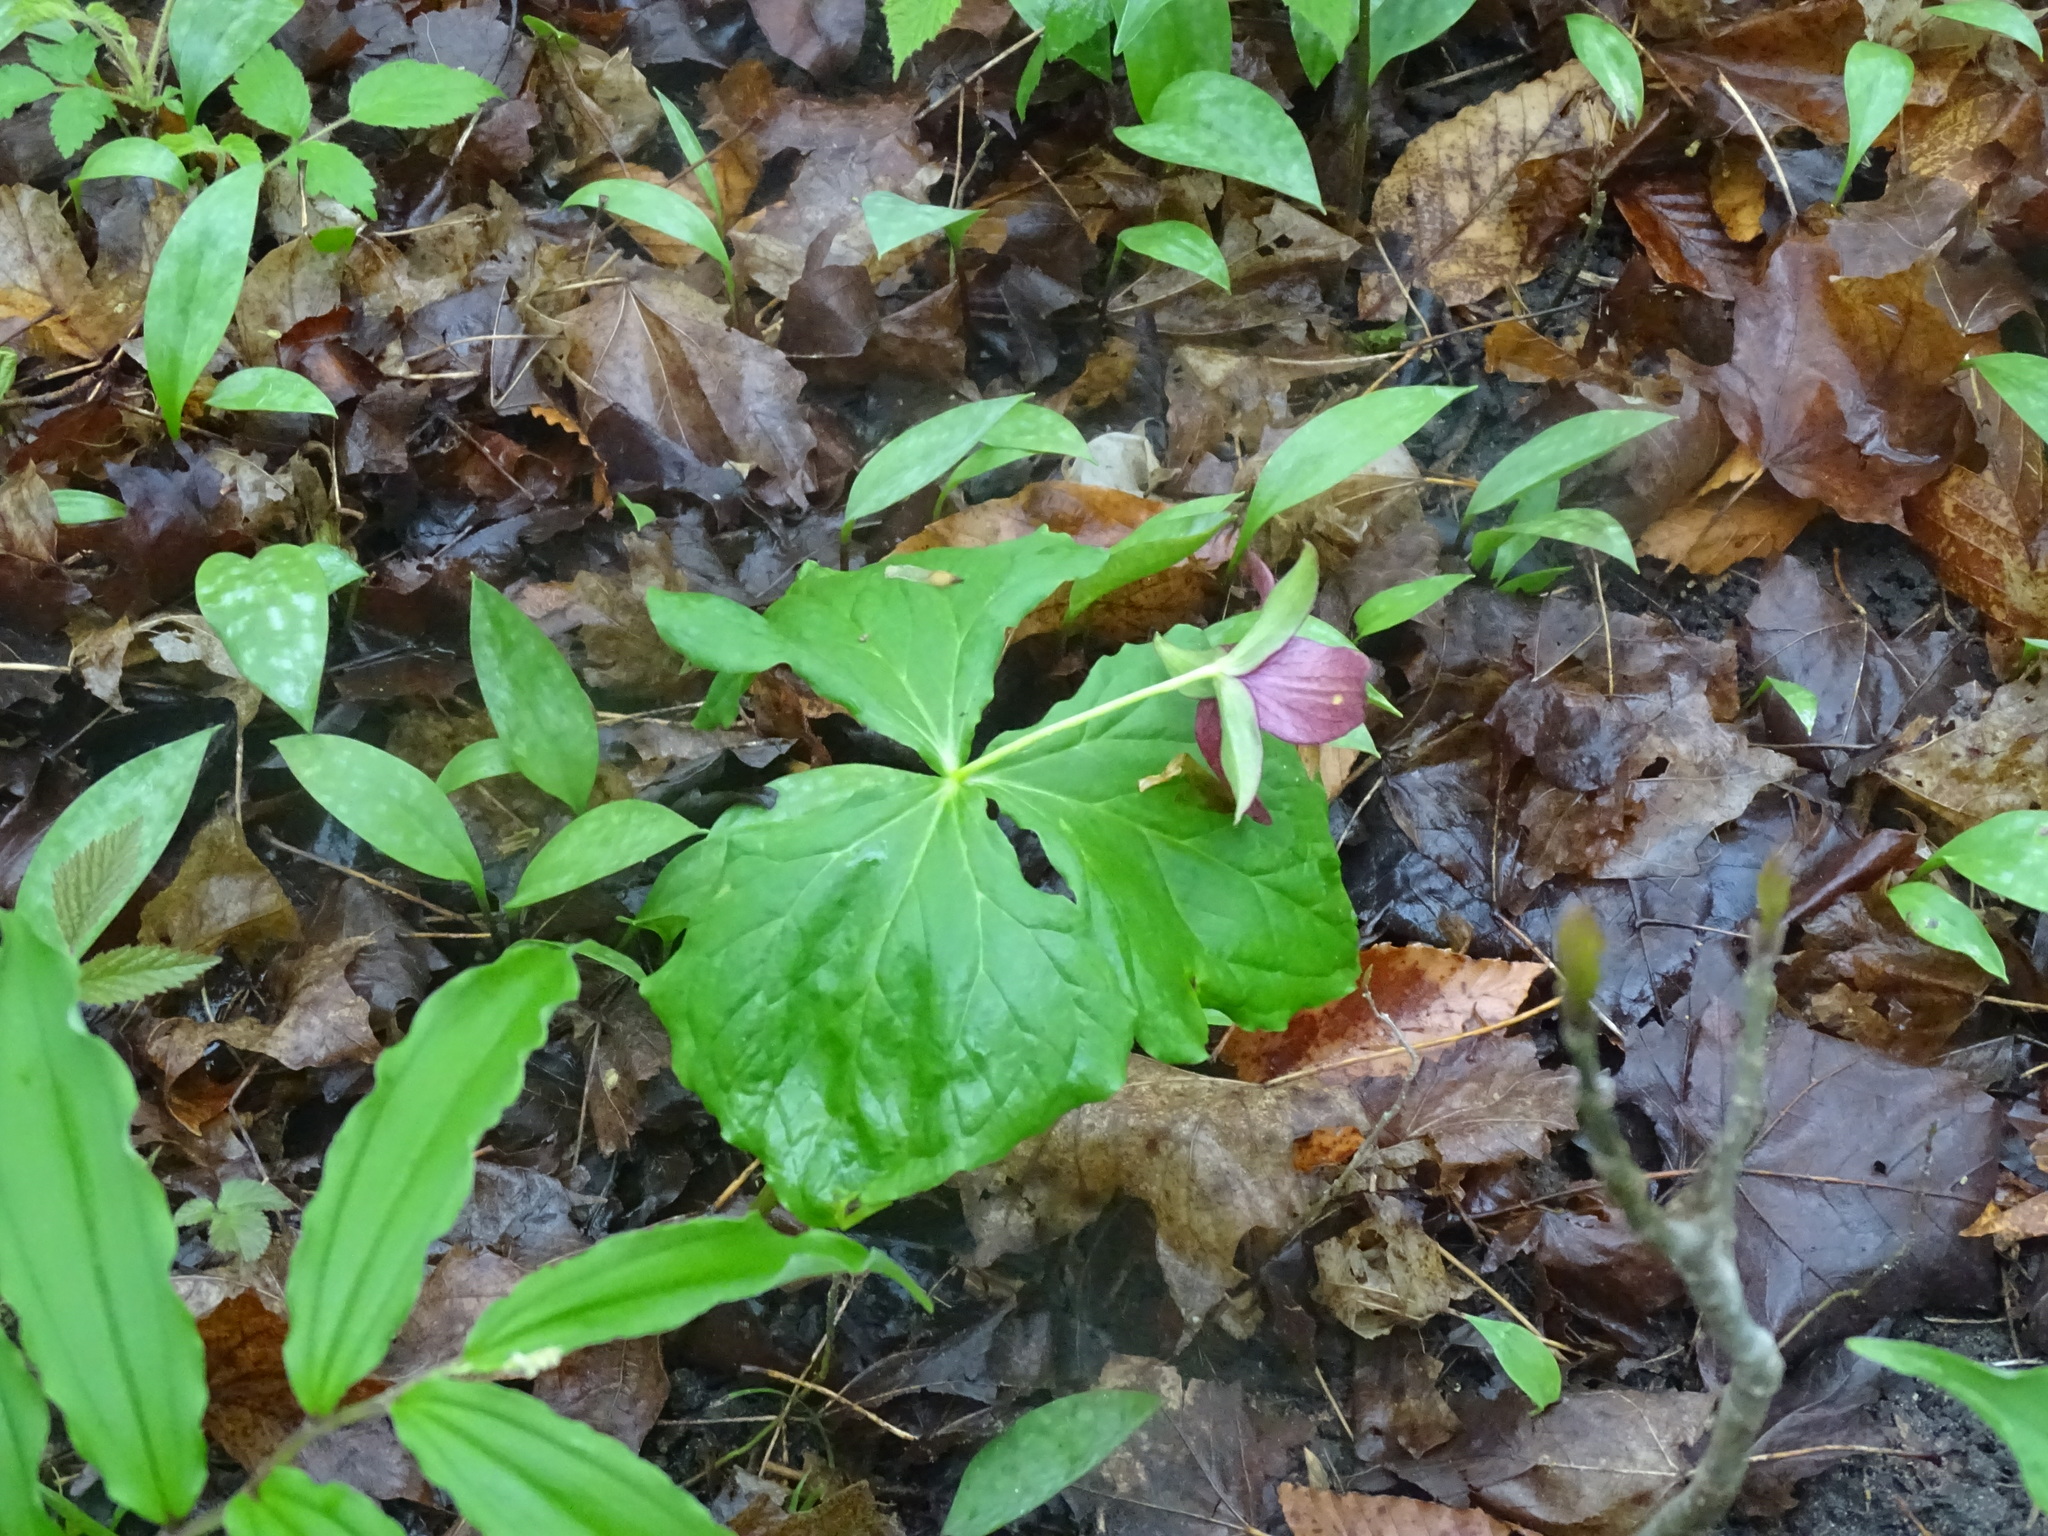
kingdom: Plantae
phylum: Tracheophyta
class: Liliopsida
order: Liliales
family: Melanthiaceae
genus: Trillium
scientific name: Trillium erectum
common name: Purple trillium
